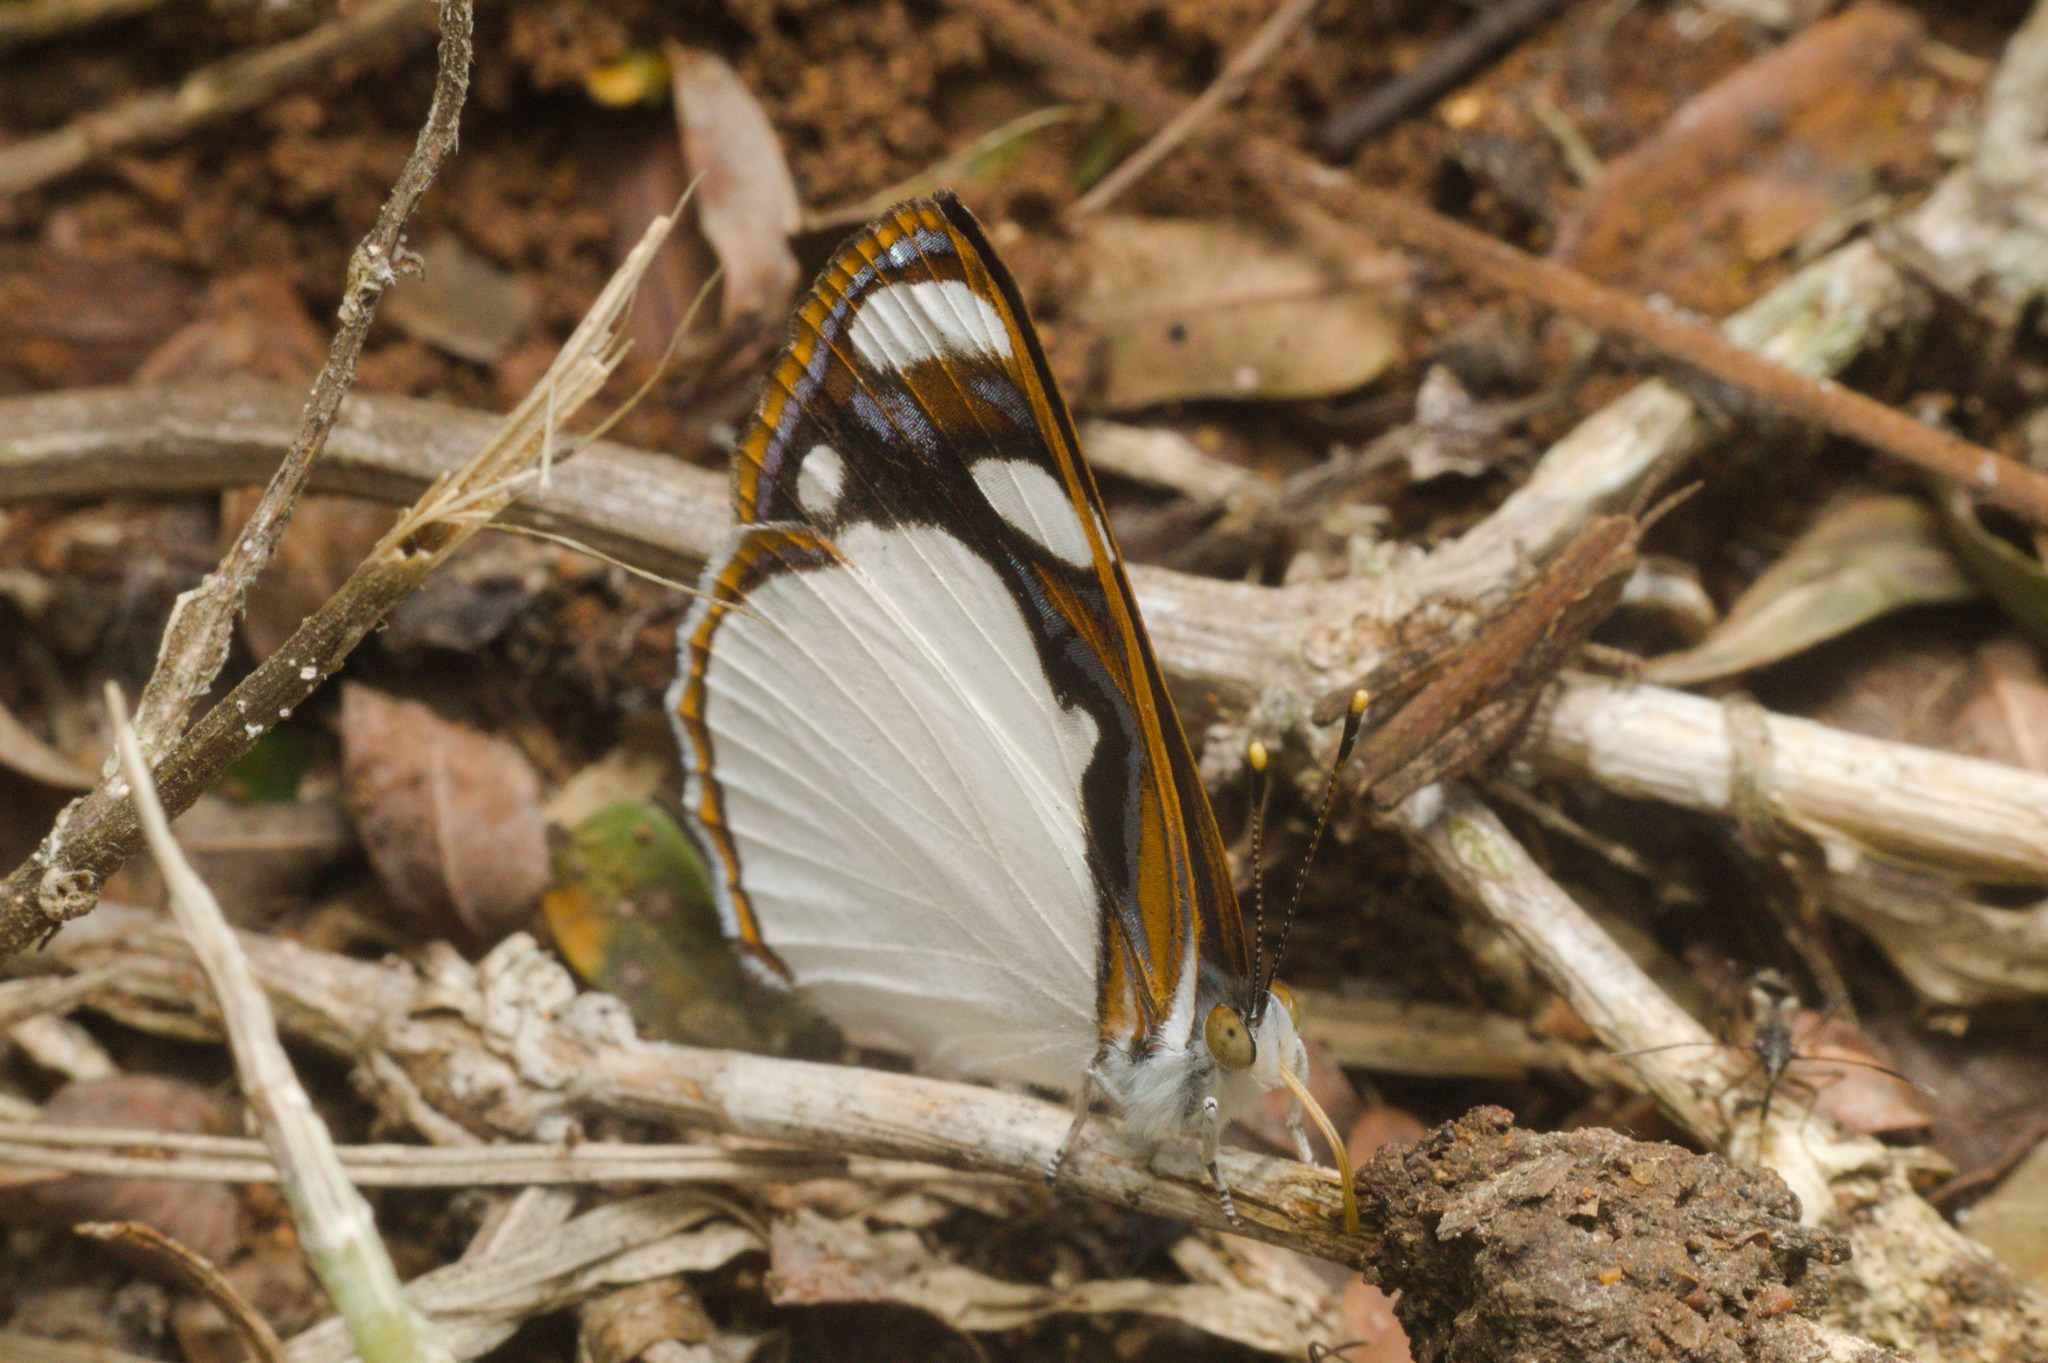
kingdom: Animalia
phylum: Arthropoda
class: Insecta
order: Lepidoptera
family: Nymphalidae
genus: Dynamine
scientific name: Dynamine coenus
